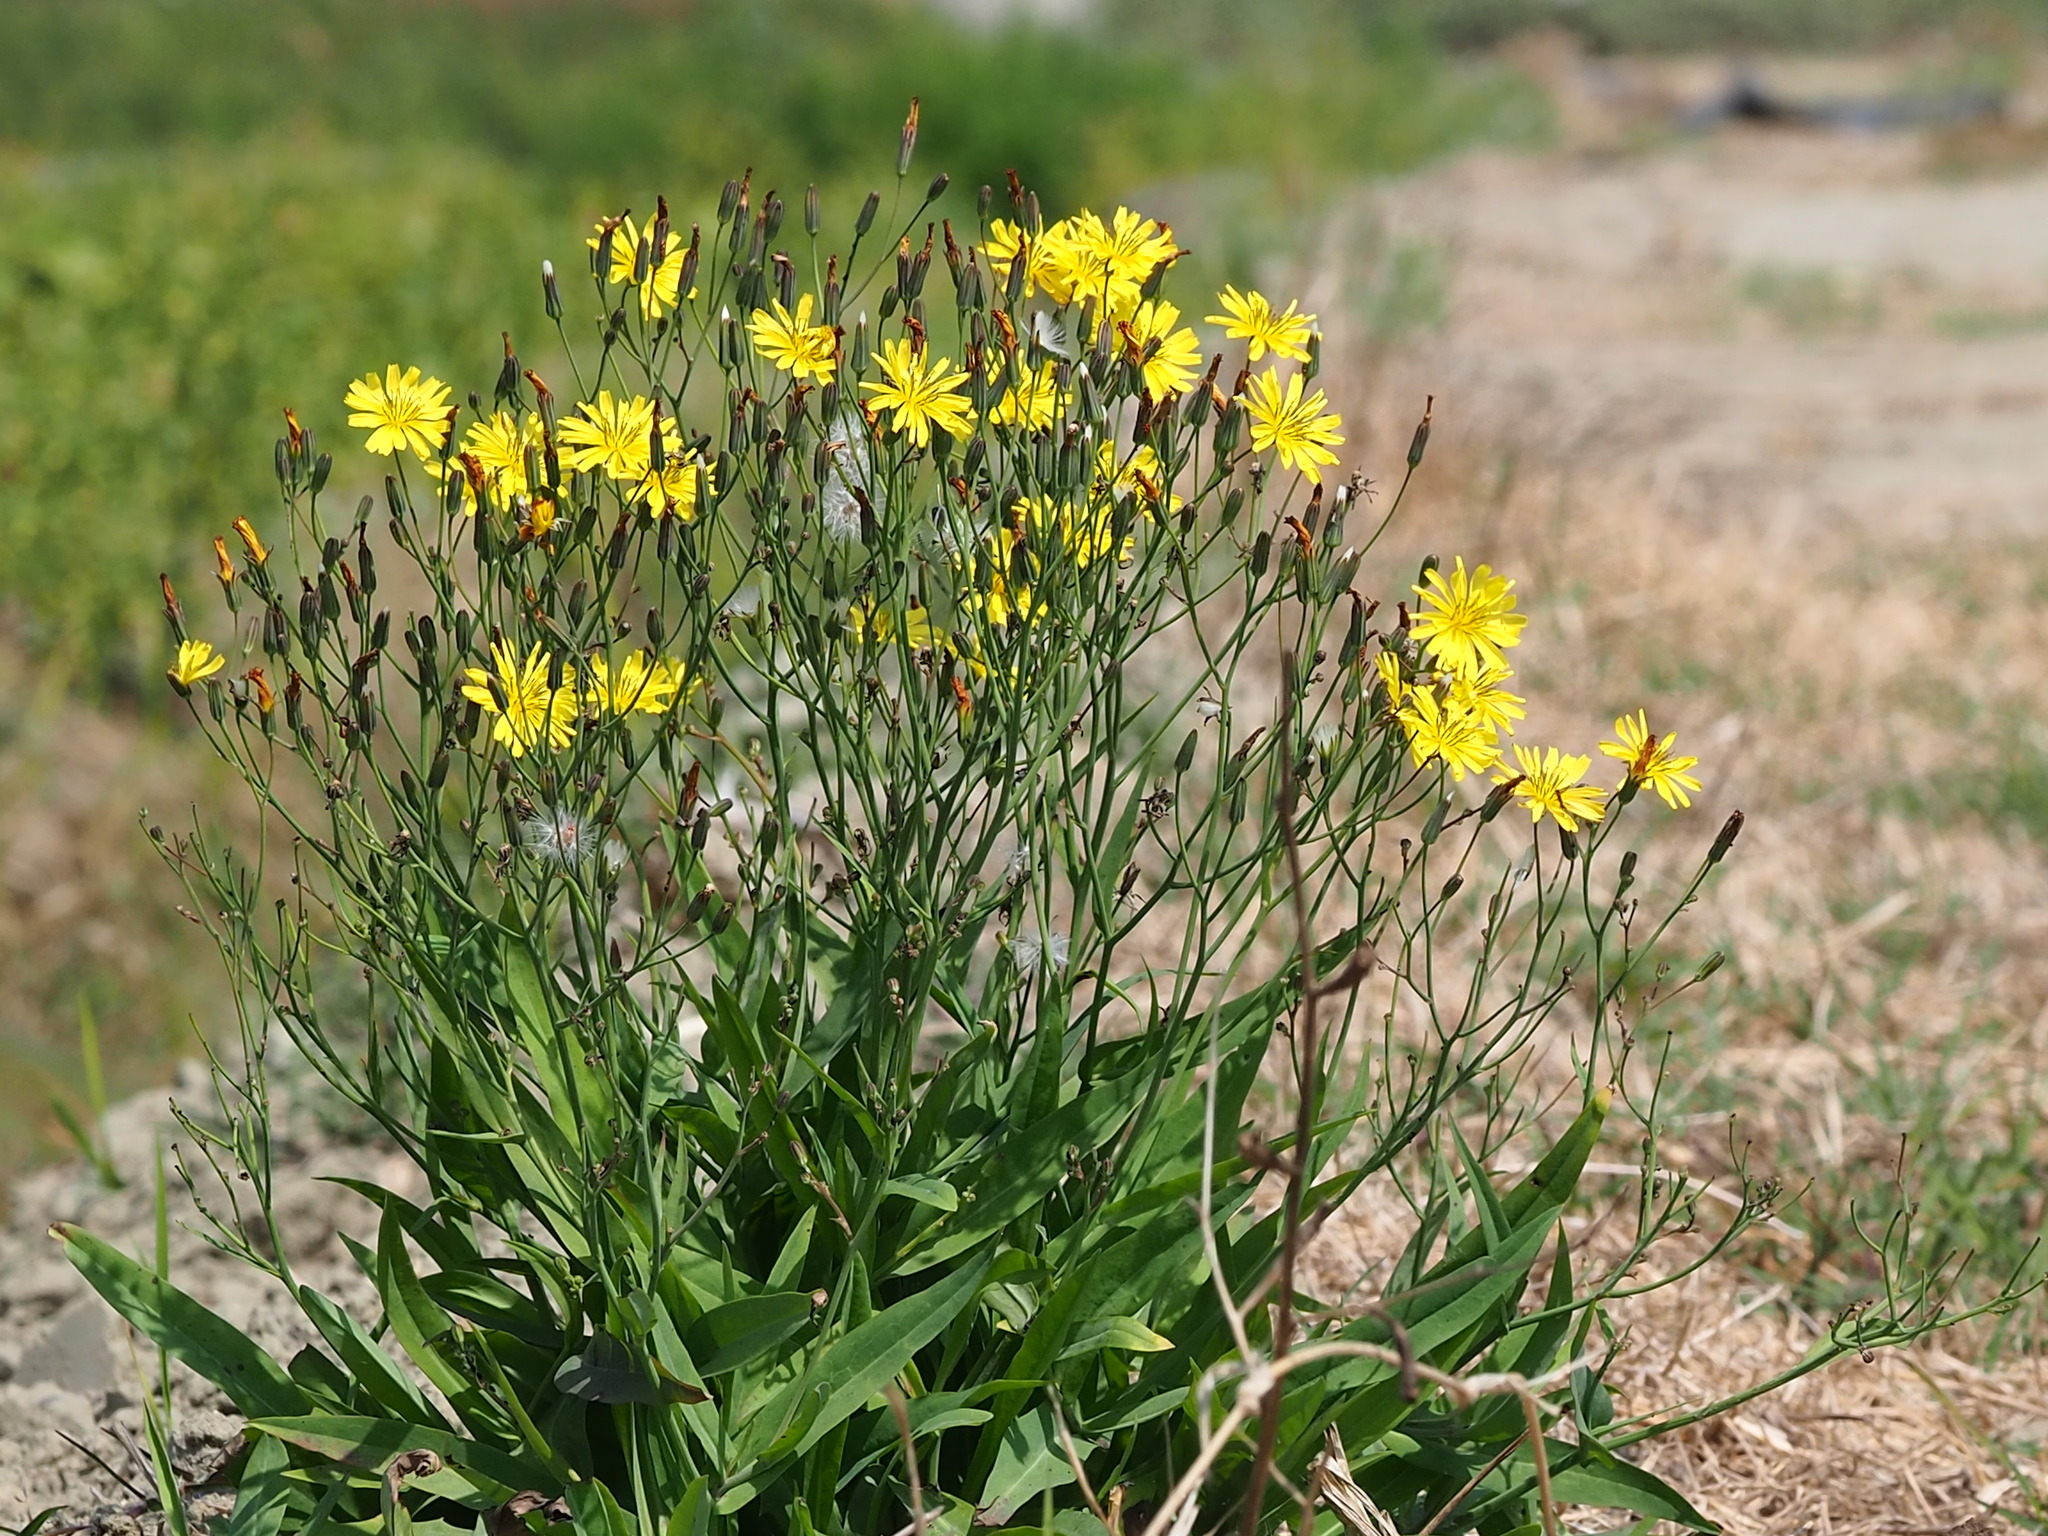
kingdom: Plantae
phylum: Tracheophyta
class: Magnoliopsida
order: Asterales
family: Asteraceae
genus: Ixeris
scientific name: Ixeris chinensis
